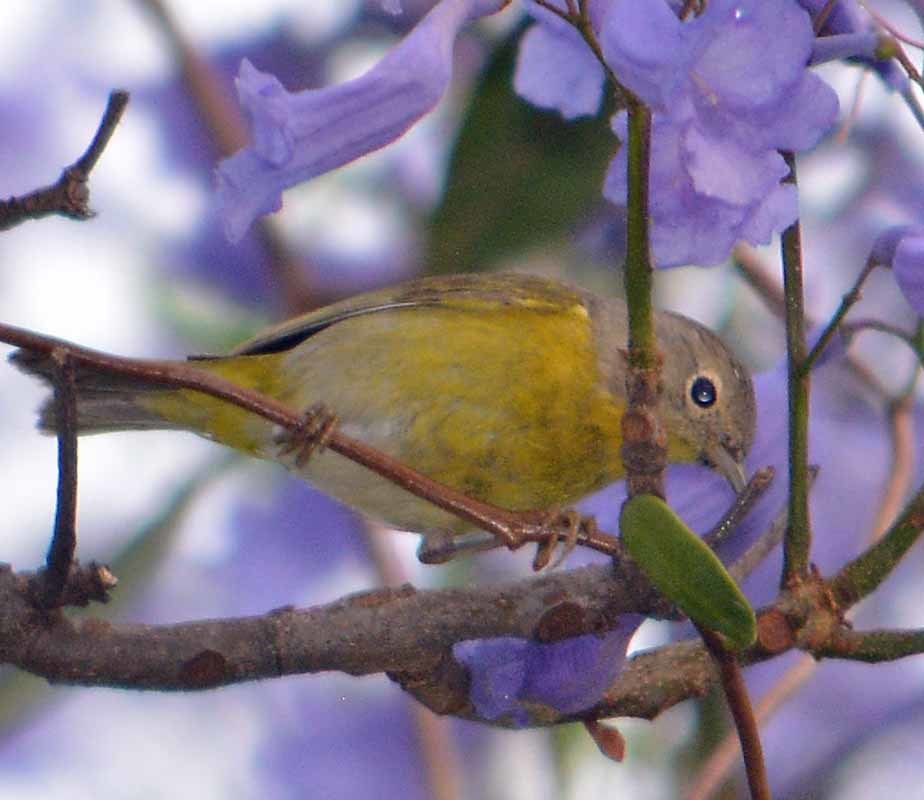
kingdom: Animalia
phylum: Chordata
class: Aves
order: Passeriformes
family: Parulidae
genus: Leiothlypis
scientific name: Leiothlypis ruficapilla
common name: Nashville warbler
